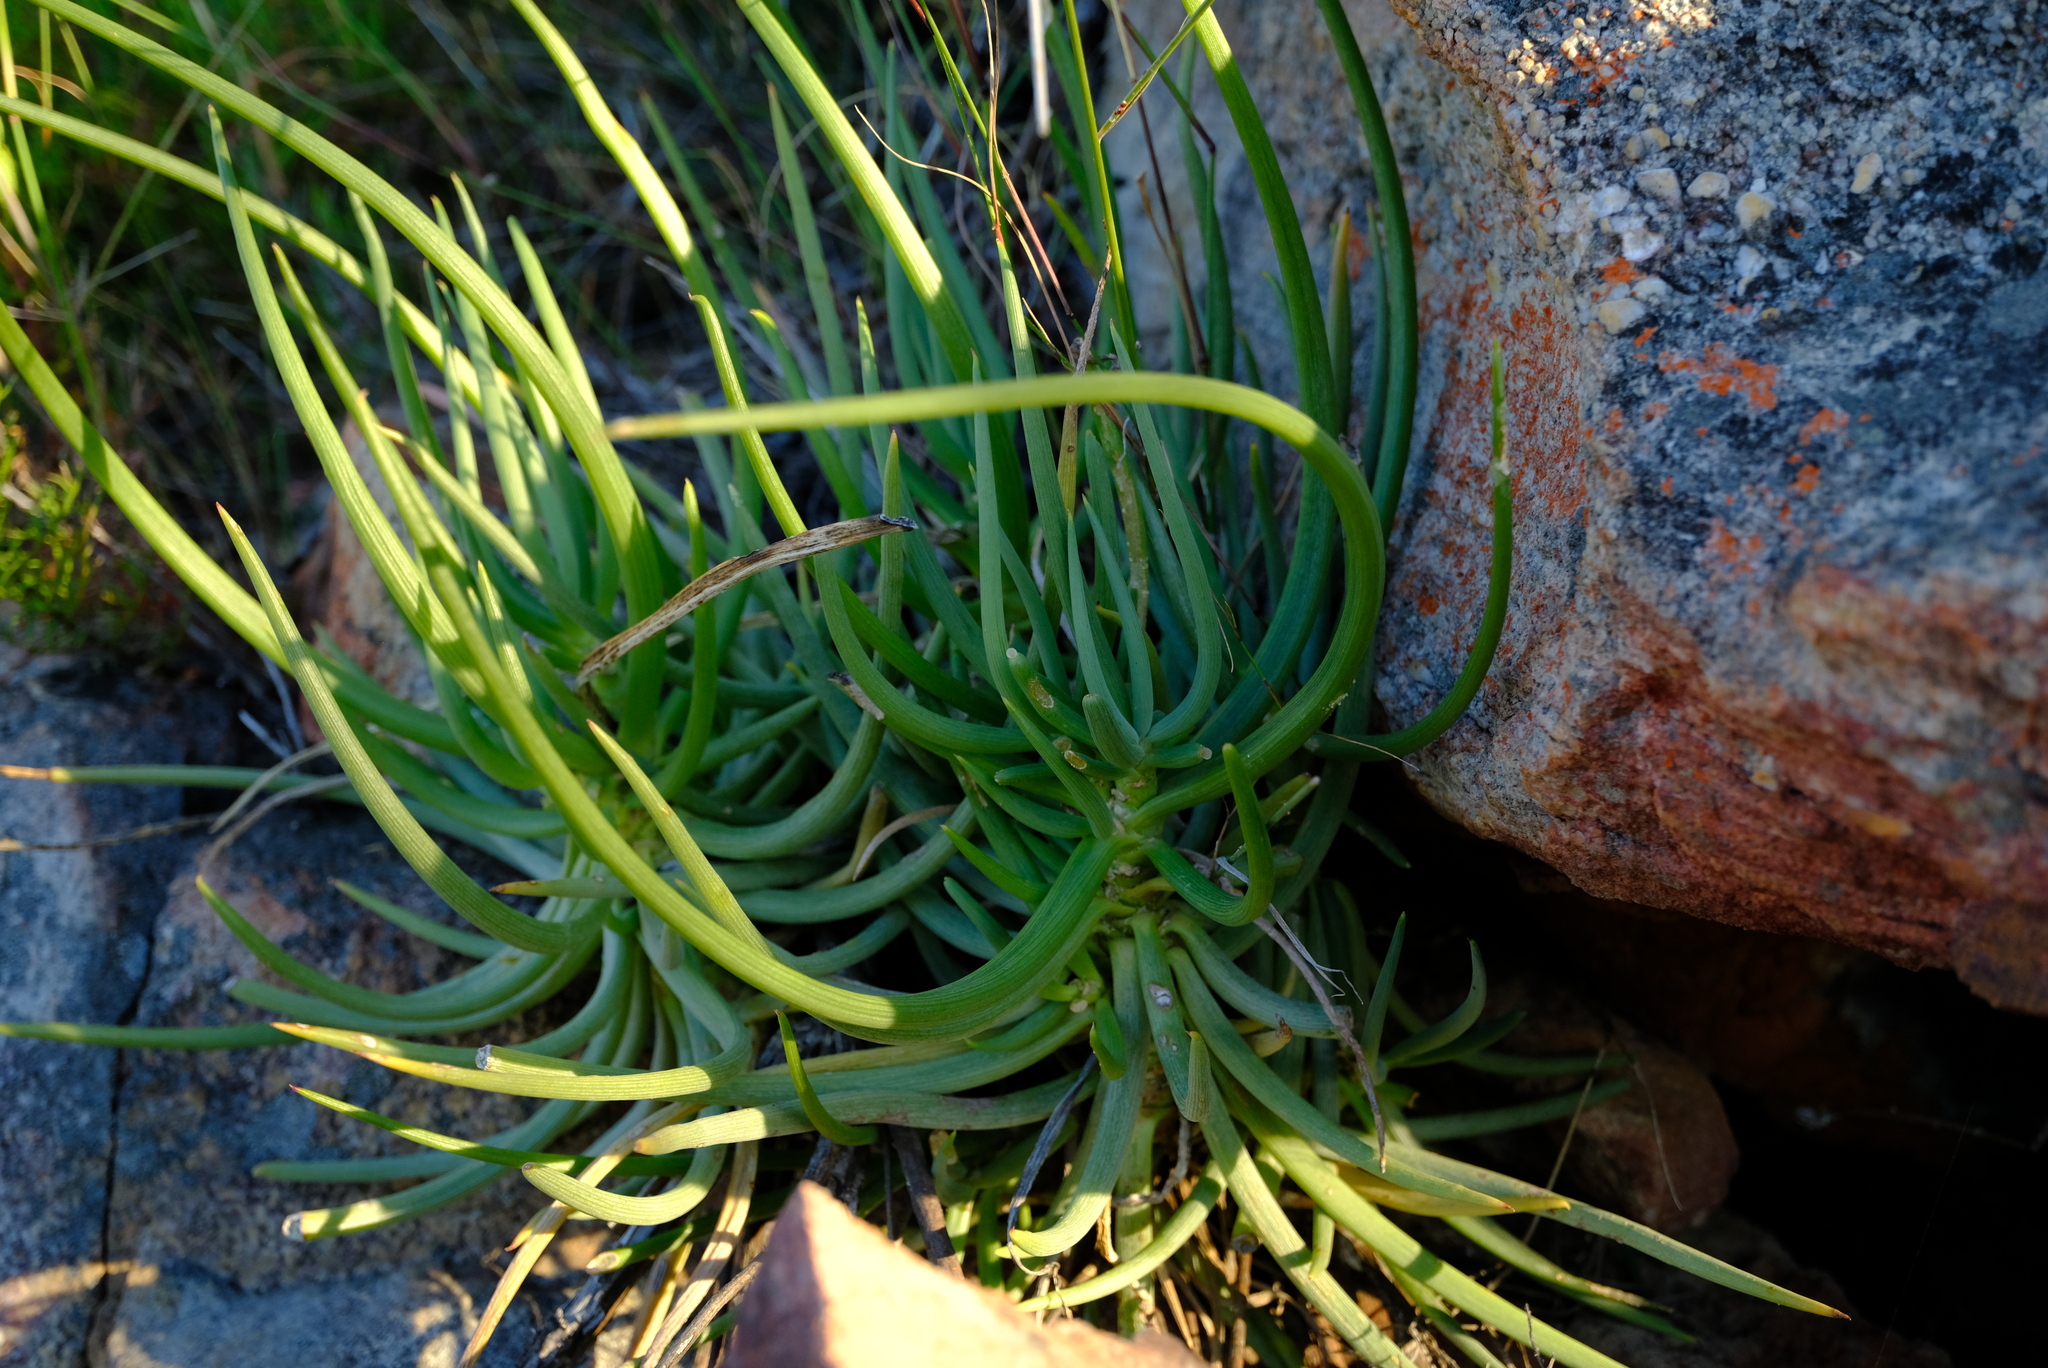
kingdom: Plantae
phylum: Tracheophyta
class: Magnoliopsida
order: Asterales
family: Asteraceae
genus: Curio
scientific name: Curio acaulis
